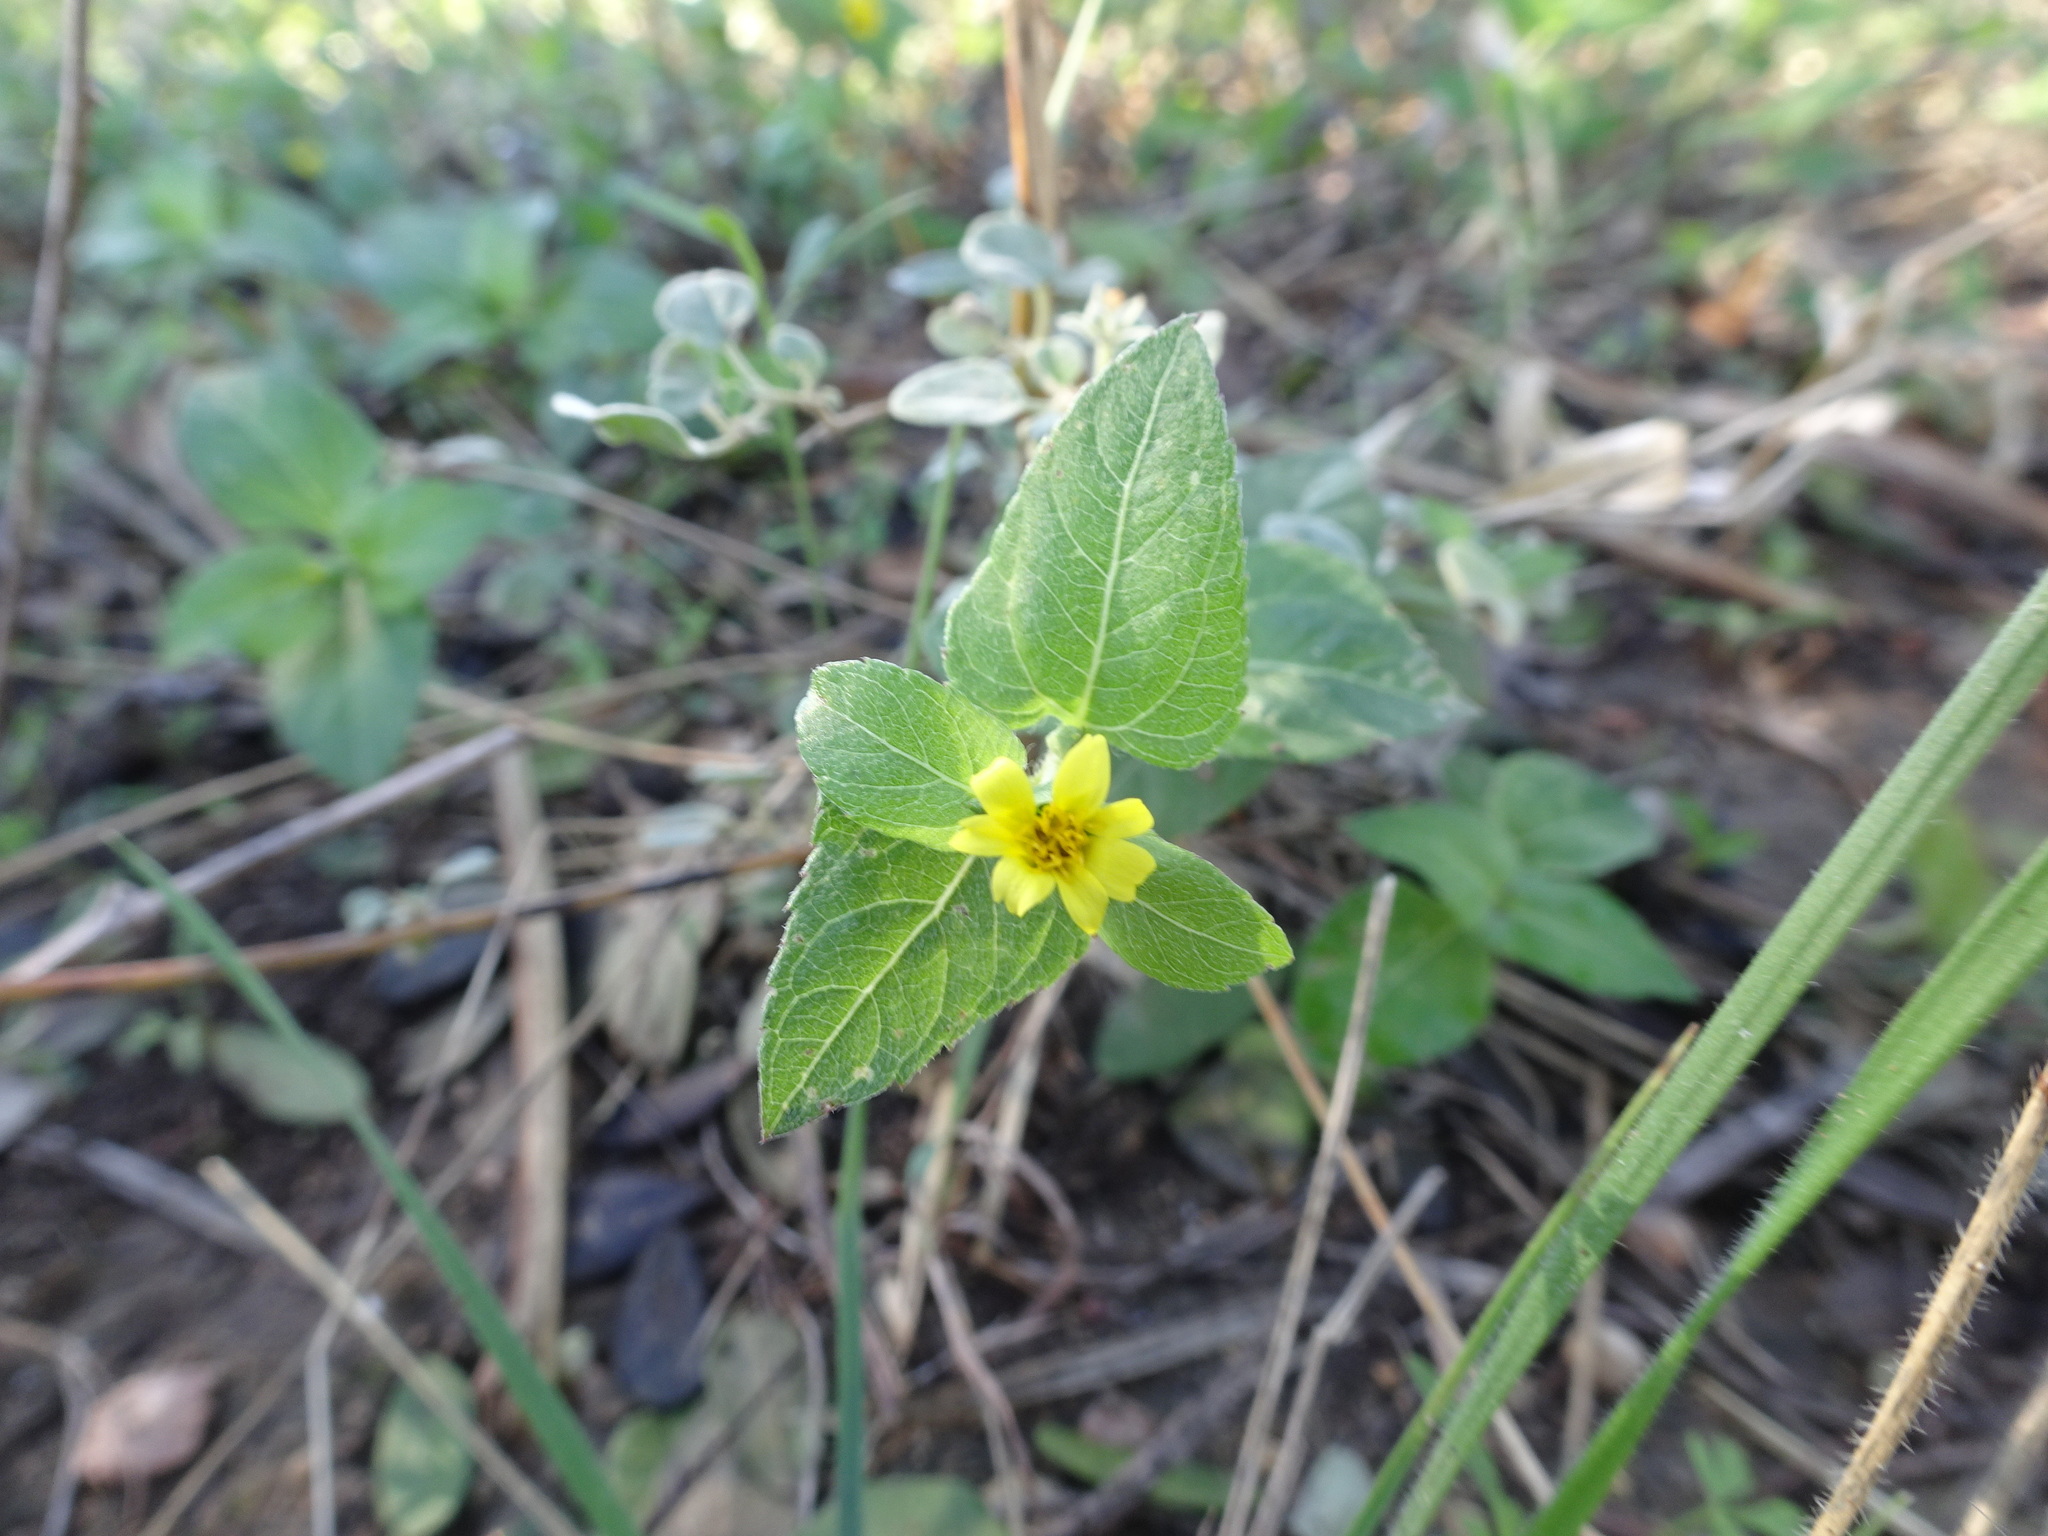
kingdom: Plantae
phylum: Tracheophyta
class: Magnoliopsida
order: Asterales
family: Asteraceae
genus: Calyptocarpus
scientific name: Calyptocarpus vialis
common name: Straggler daisy
